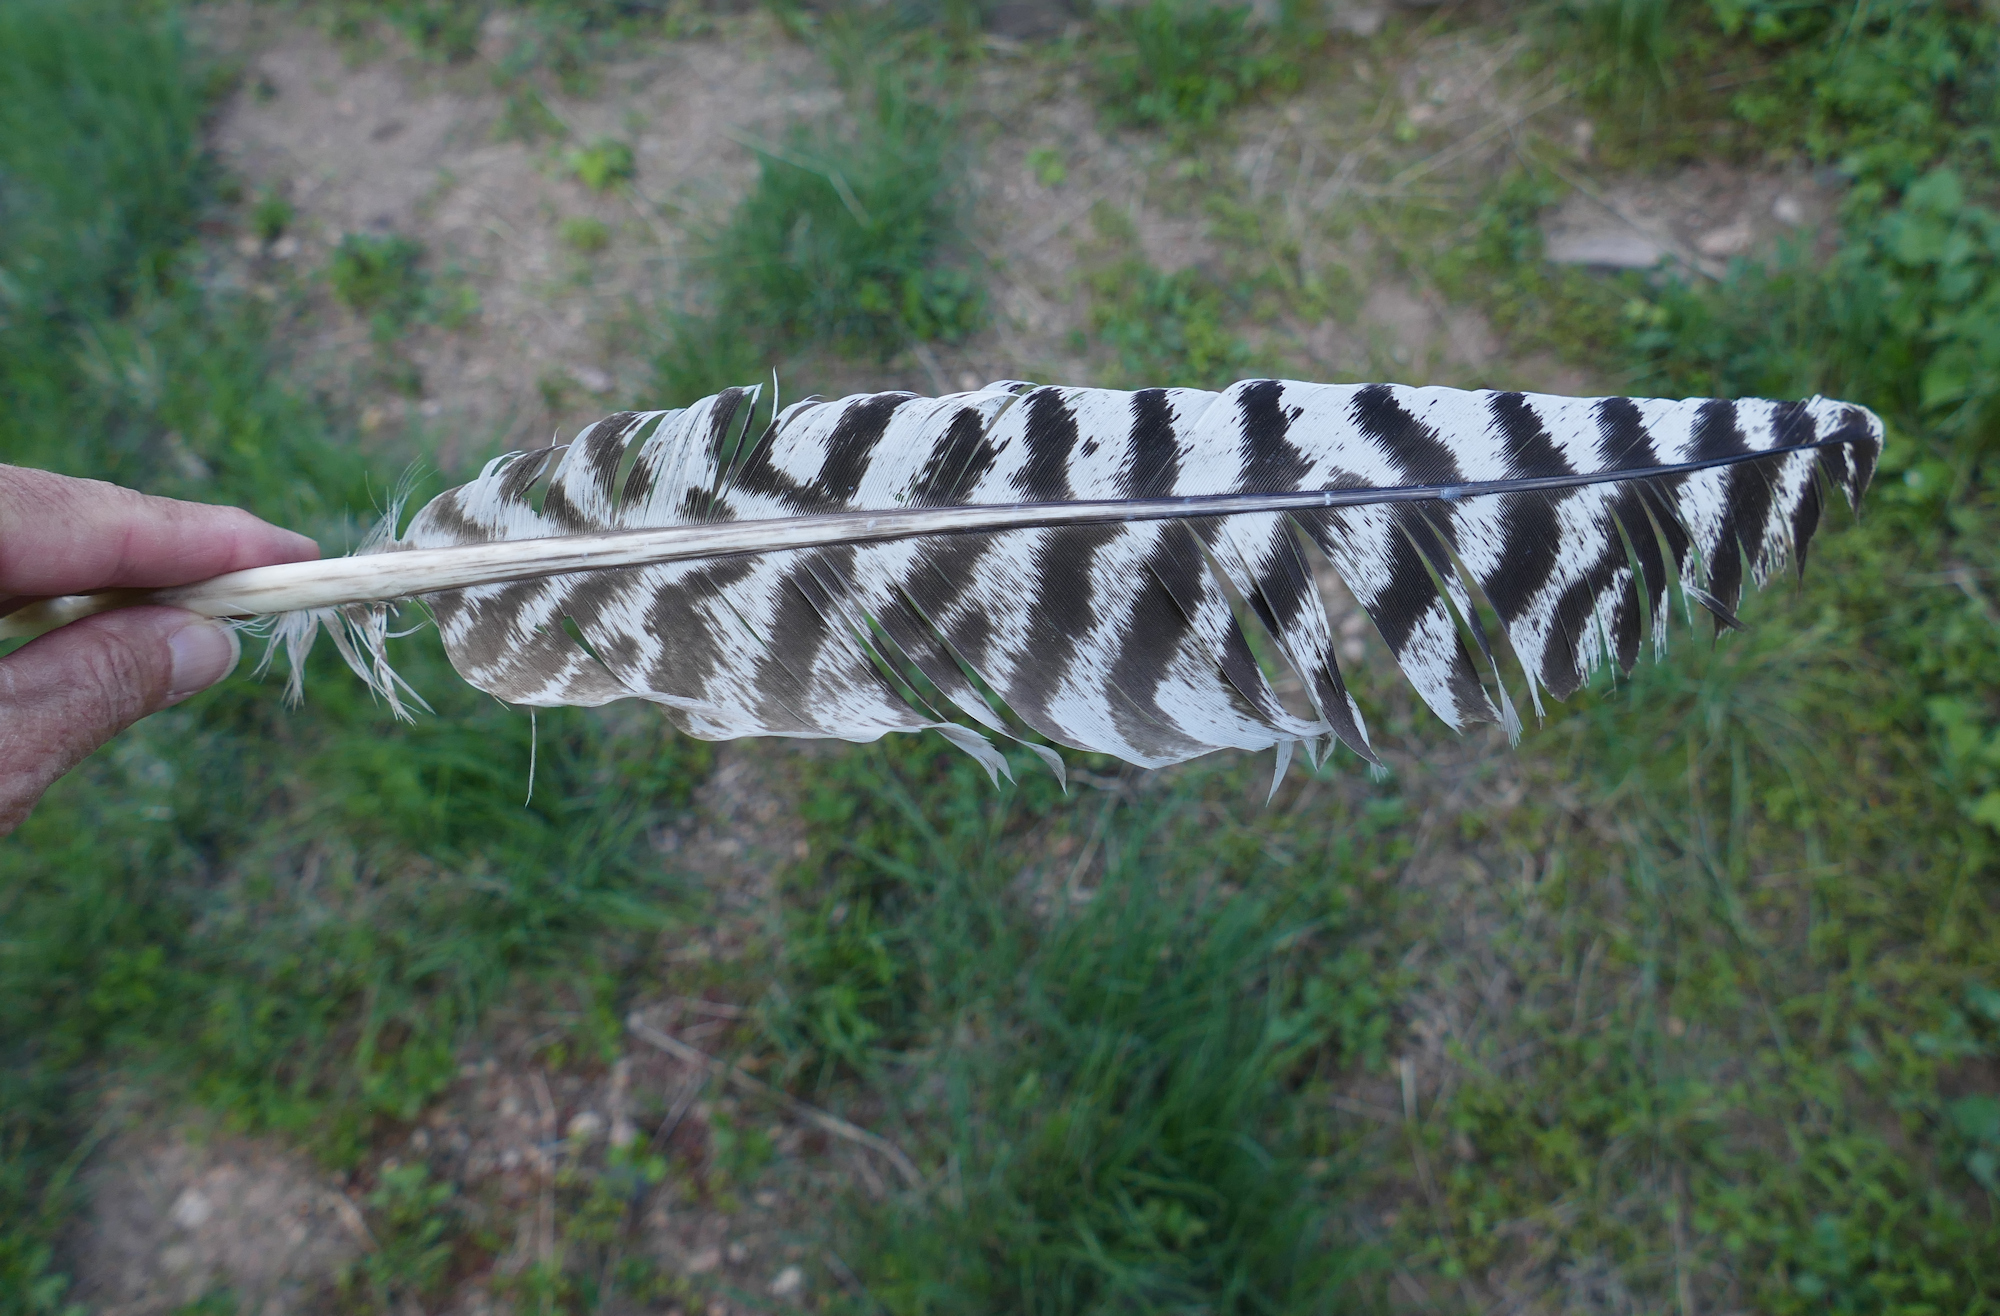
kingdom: Animalia
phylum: Chordata
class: Aves
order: Galliformes
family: Phasianidae
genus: Meleagris
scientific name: Meleagris gallopavo
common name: Wild turkey
